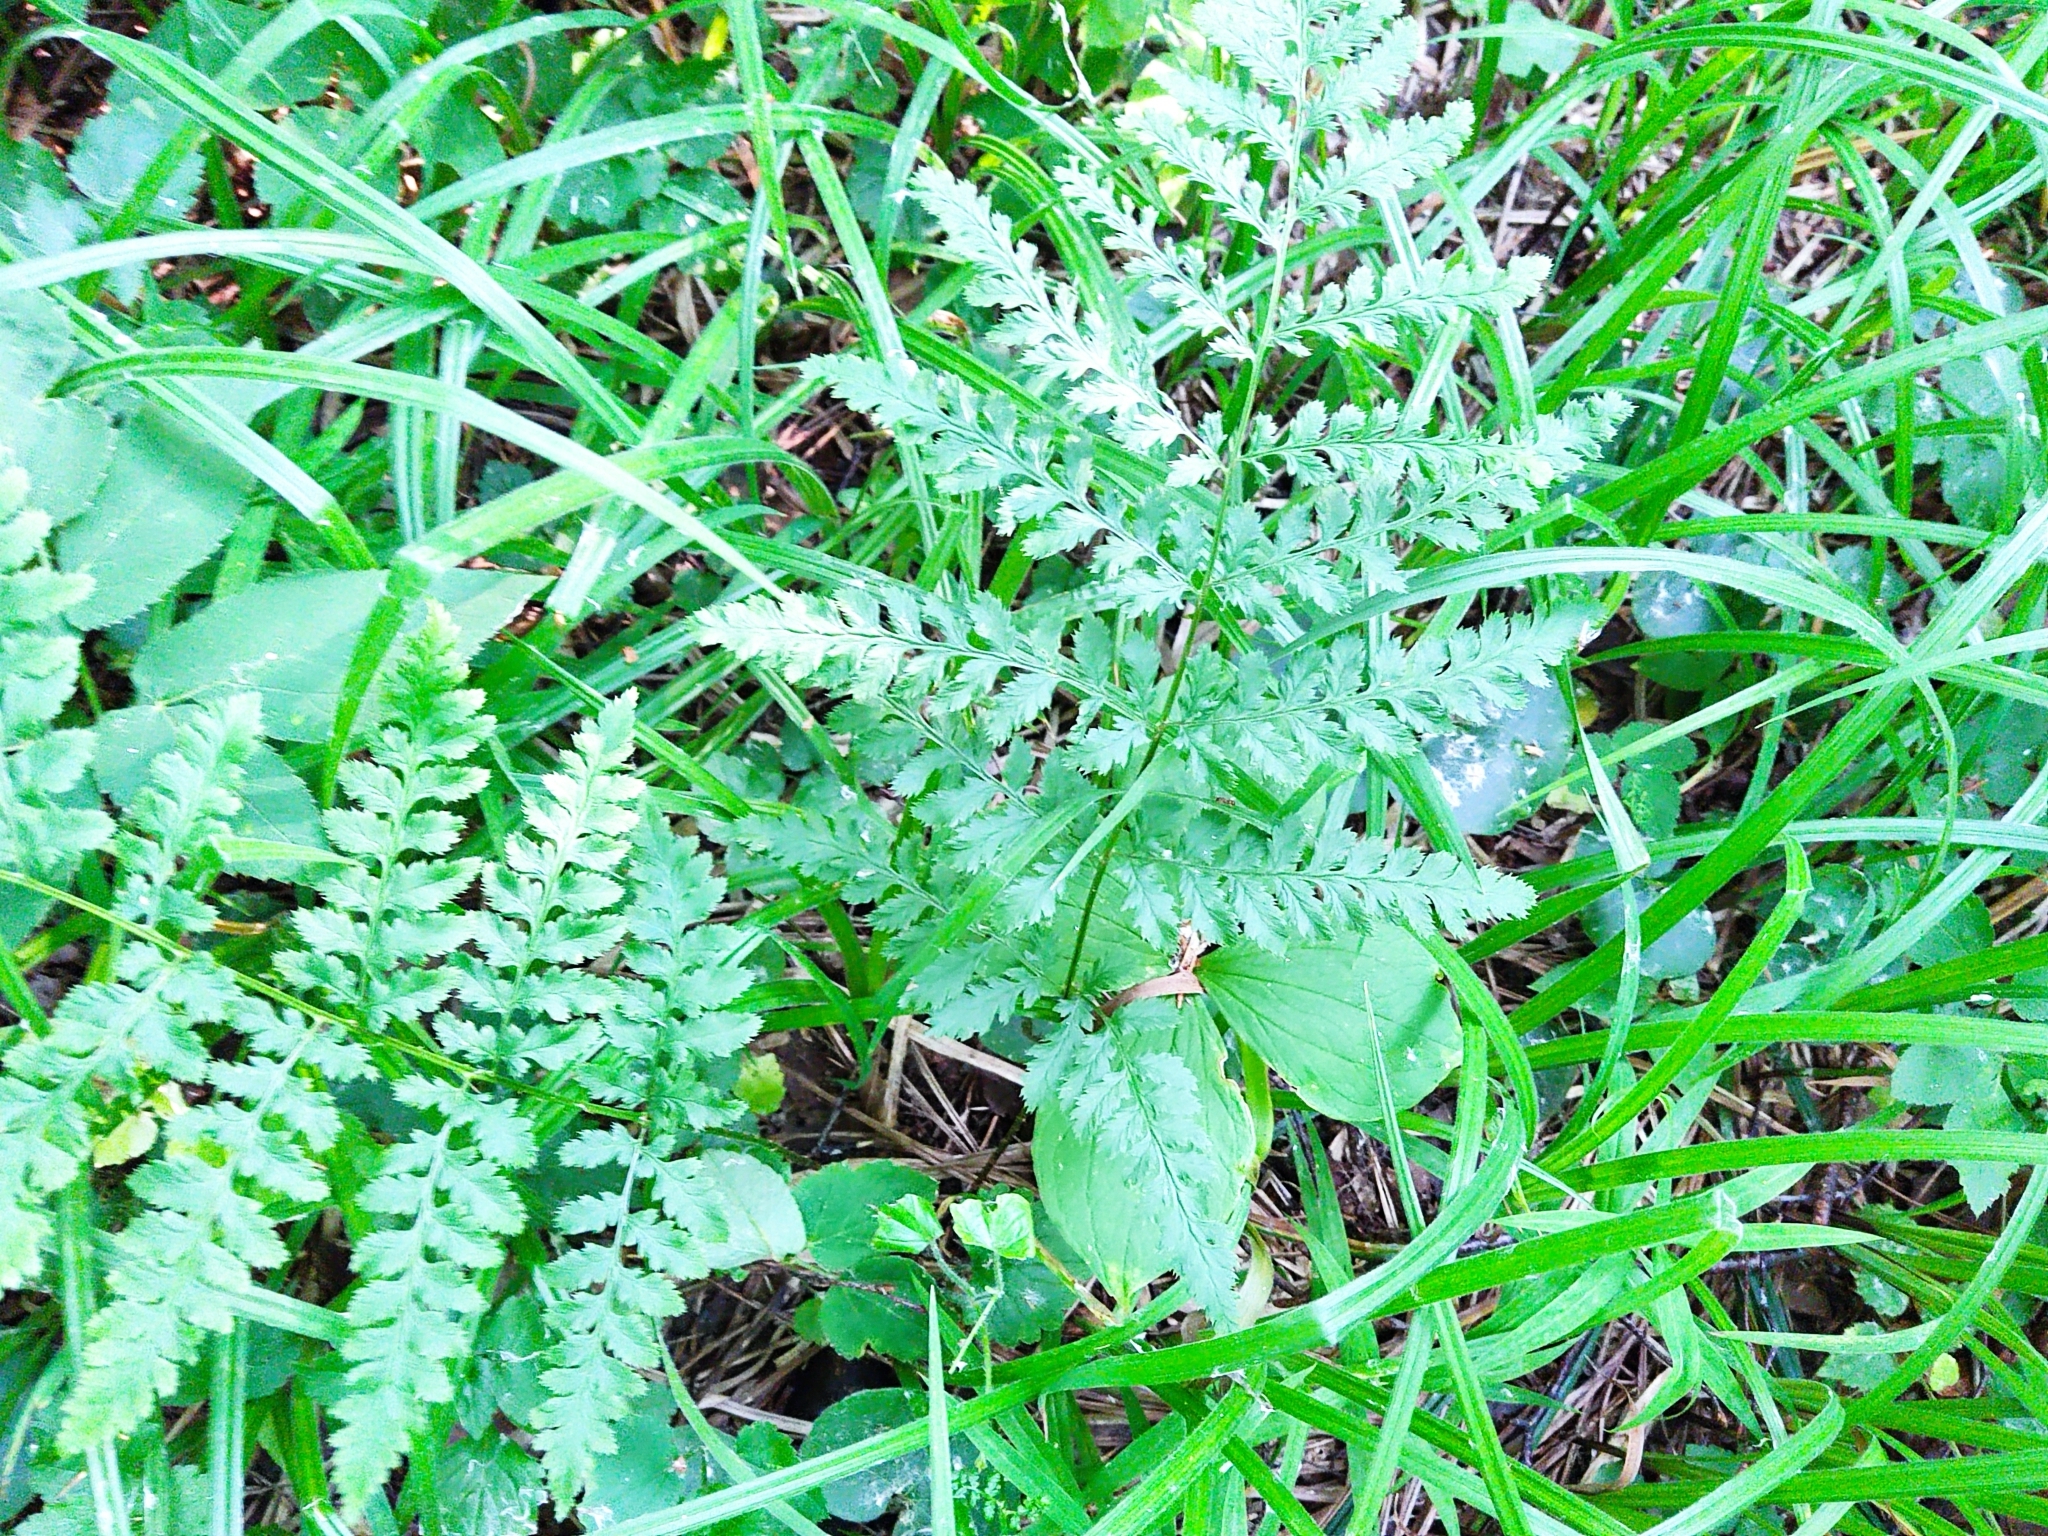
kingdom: Plantae
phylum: Tracheophyta
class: Polypodiopsida
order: Polypodiales
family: Dryopteridaceae
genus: Dryopteris
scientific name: Dryopteris carthusiana
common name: Narrow buckler-fern
